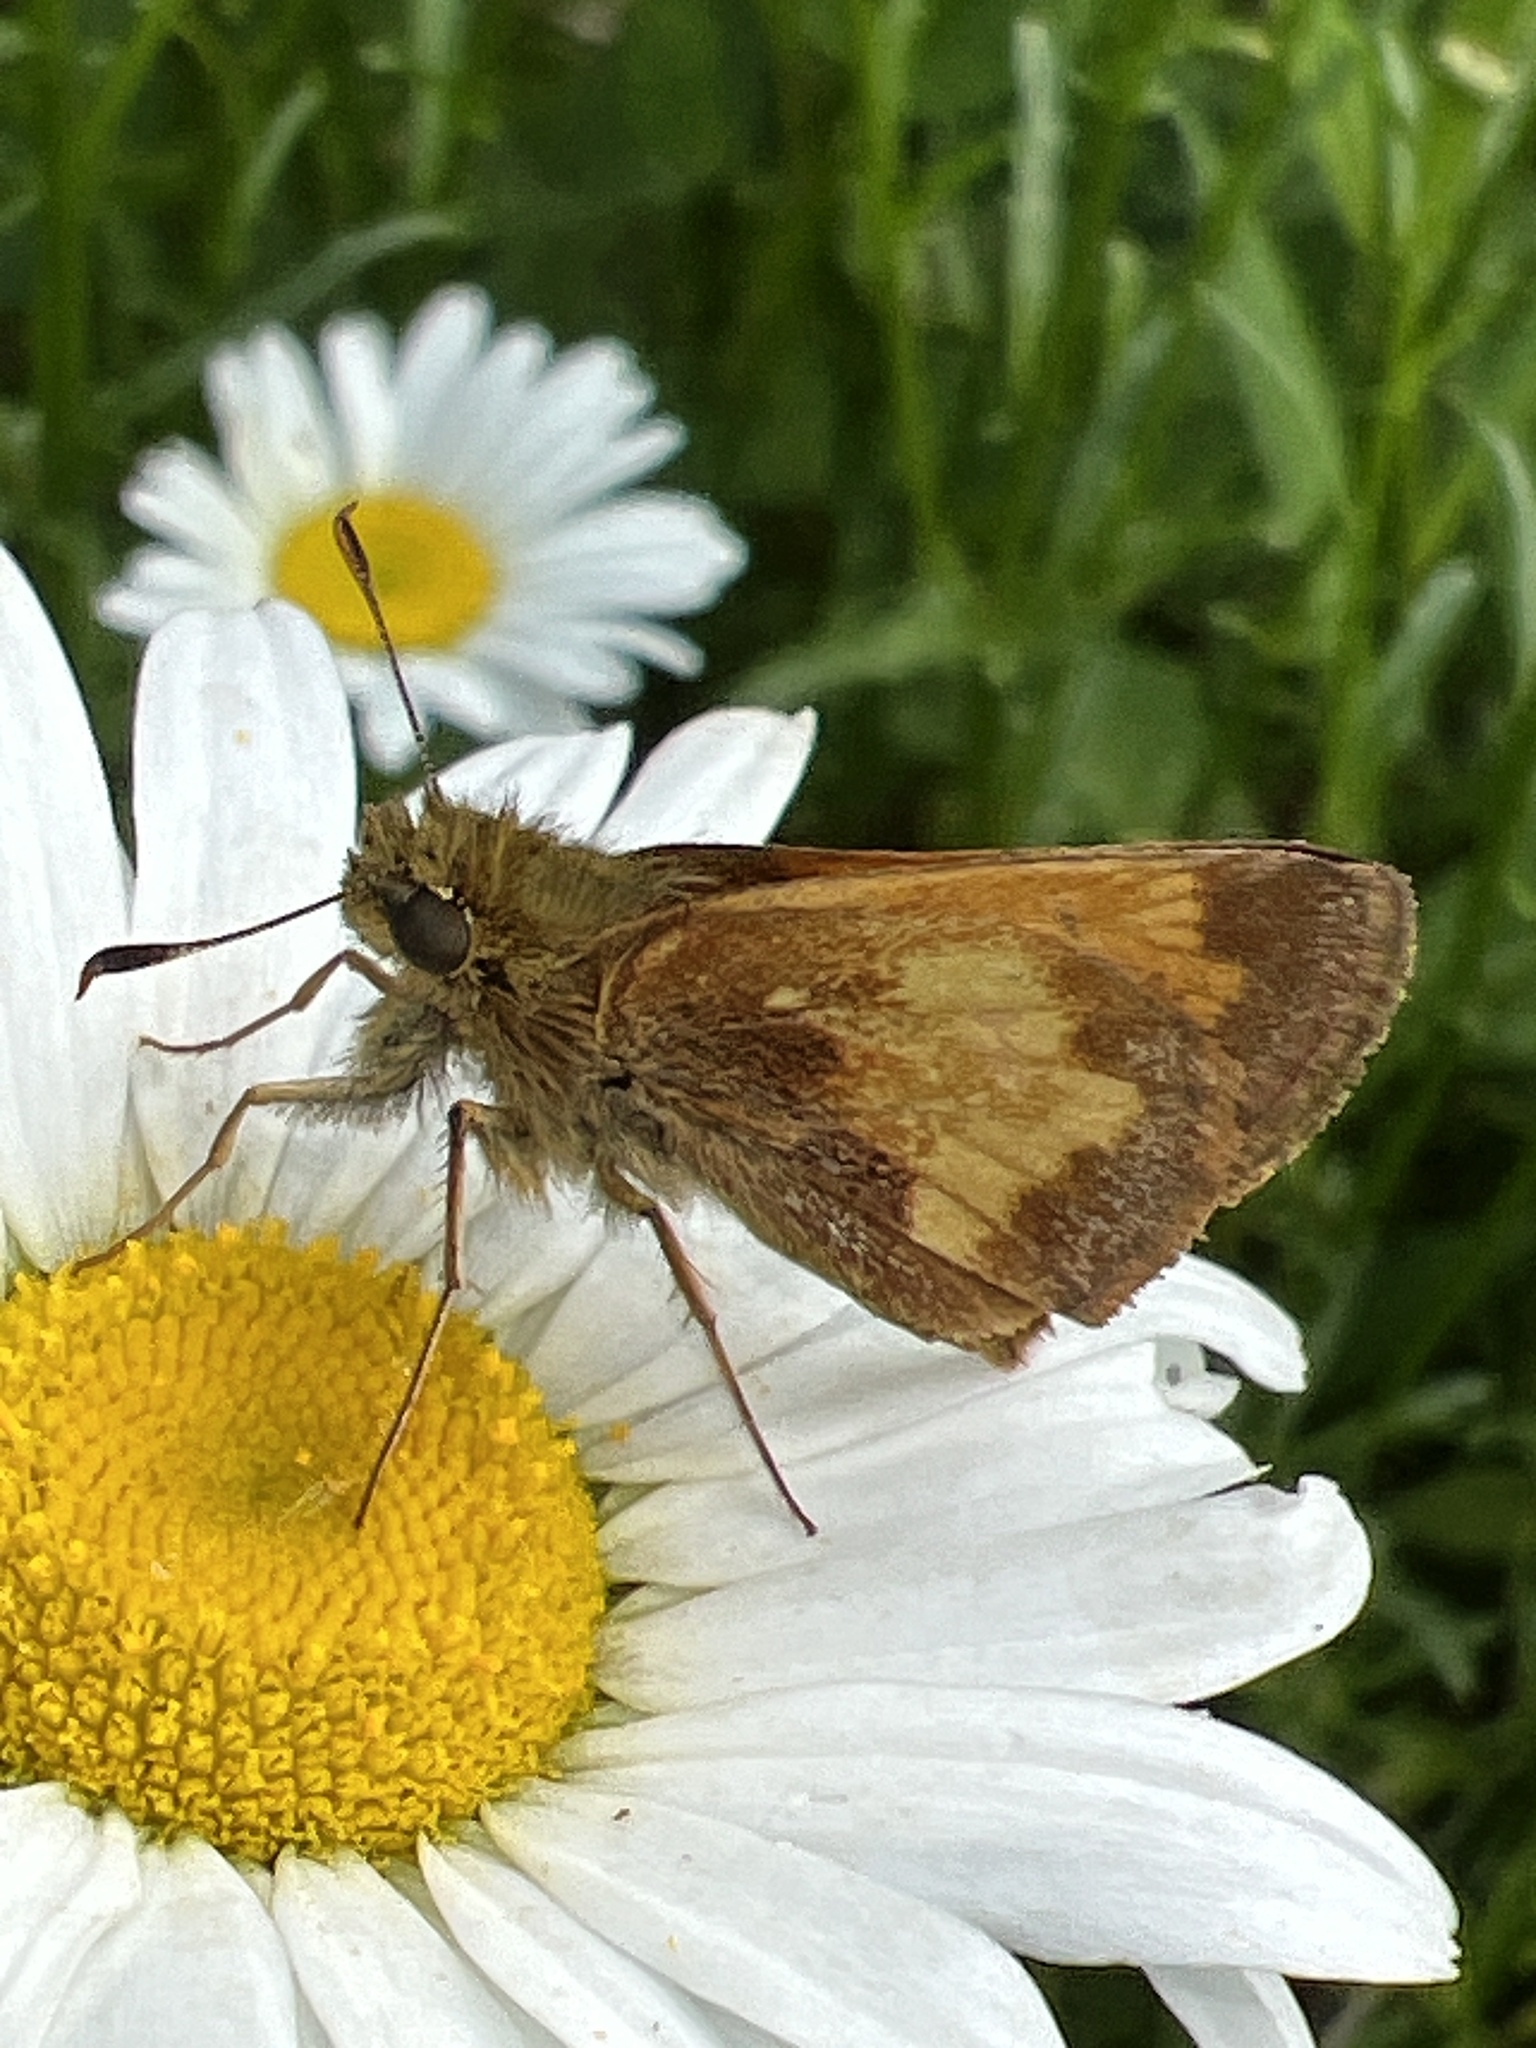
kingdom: Animalia
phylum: Arthropoda
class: Insecta
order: Lepidoptera
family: Hesperiidae
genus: Lon
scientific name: Lon hobomok
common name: Hobomok skipper
